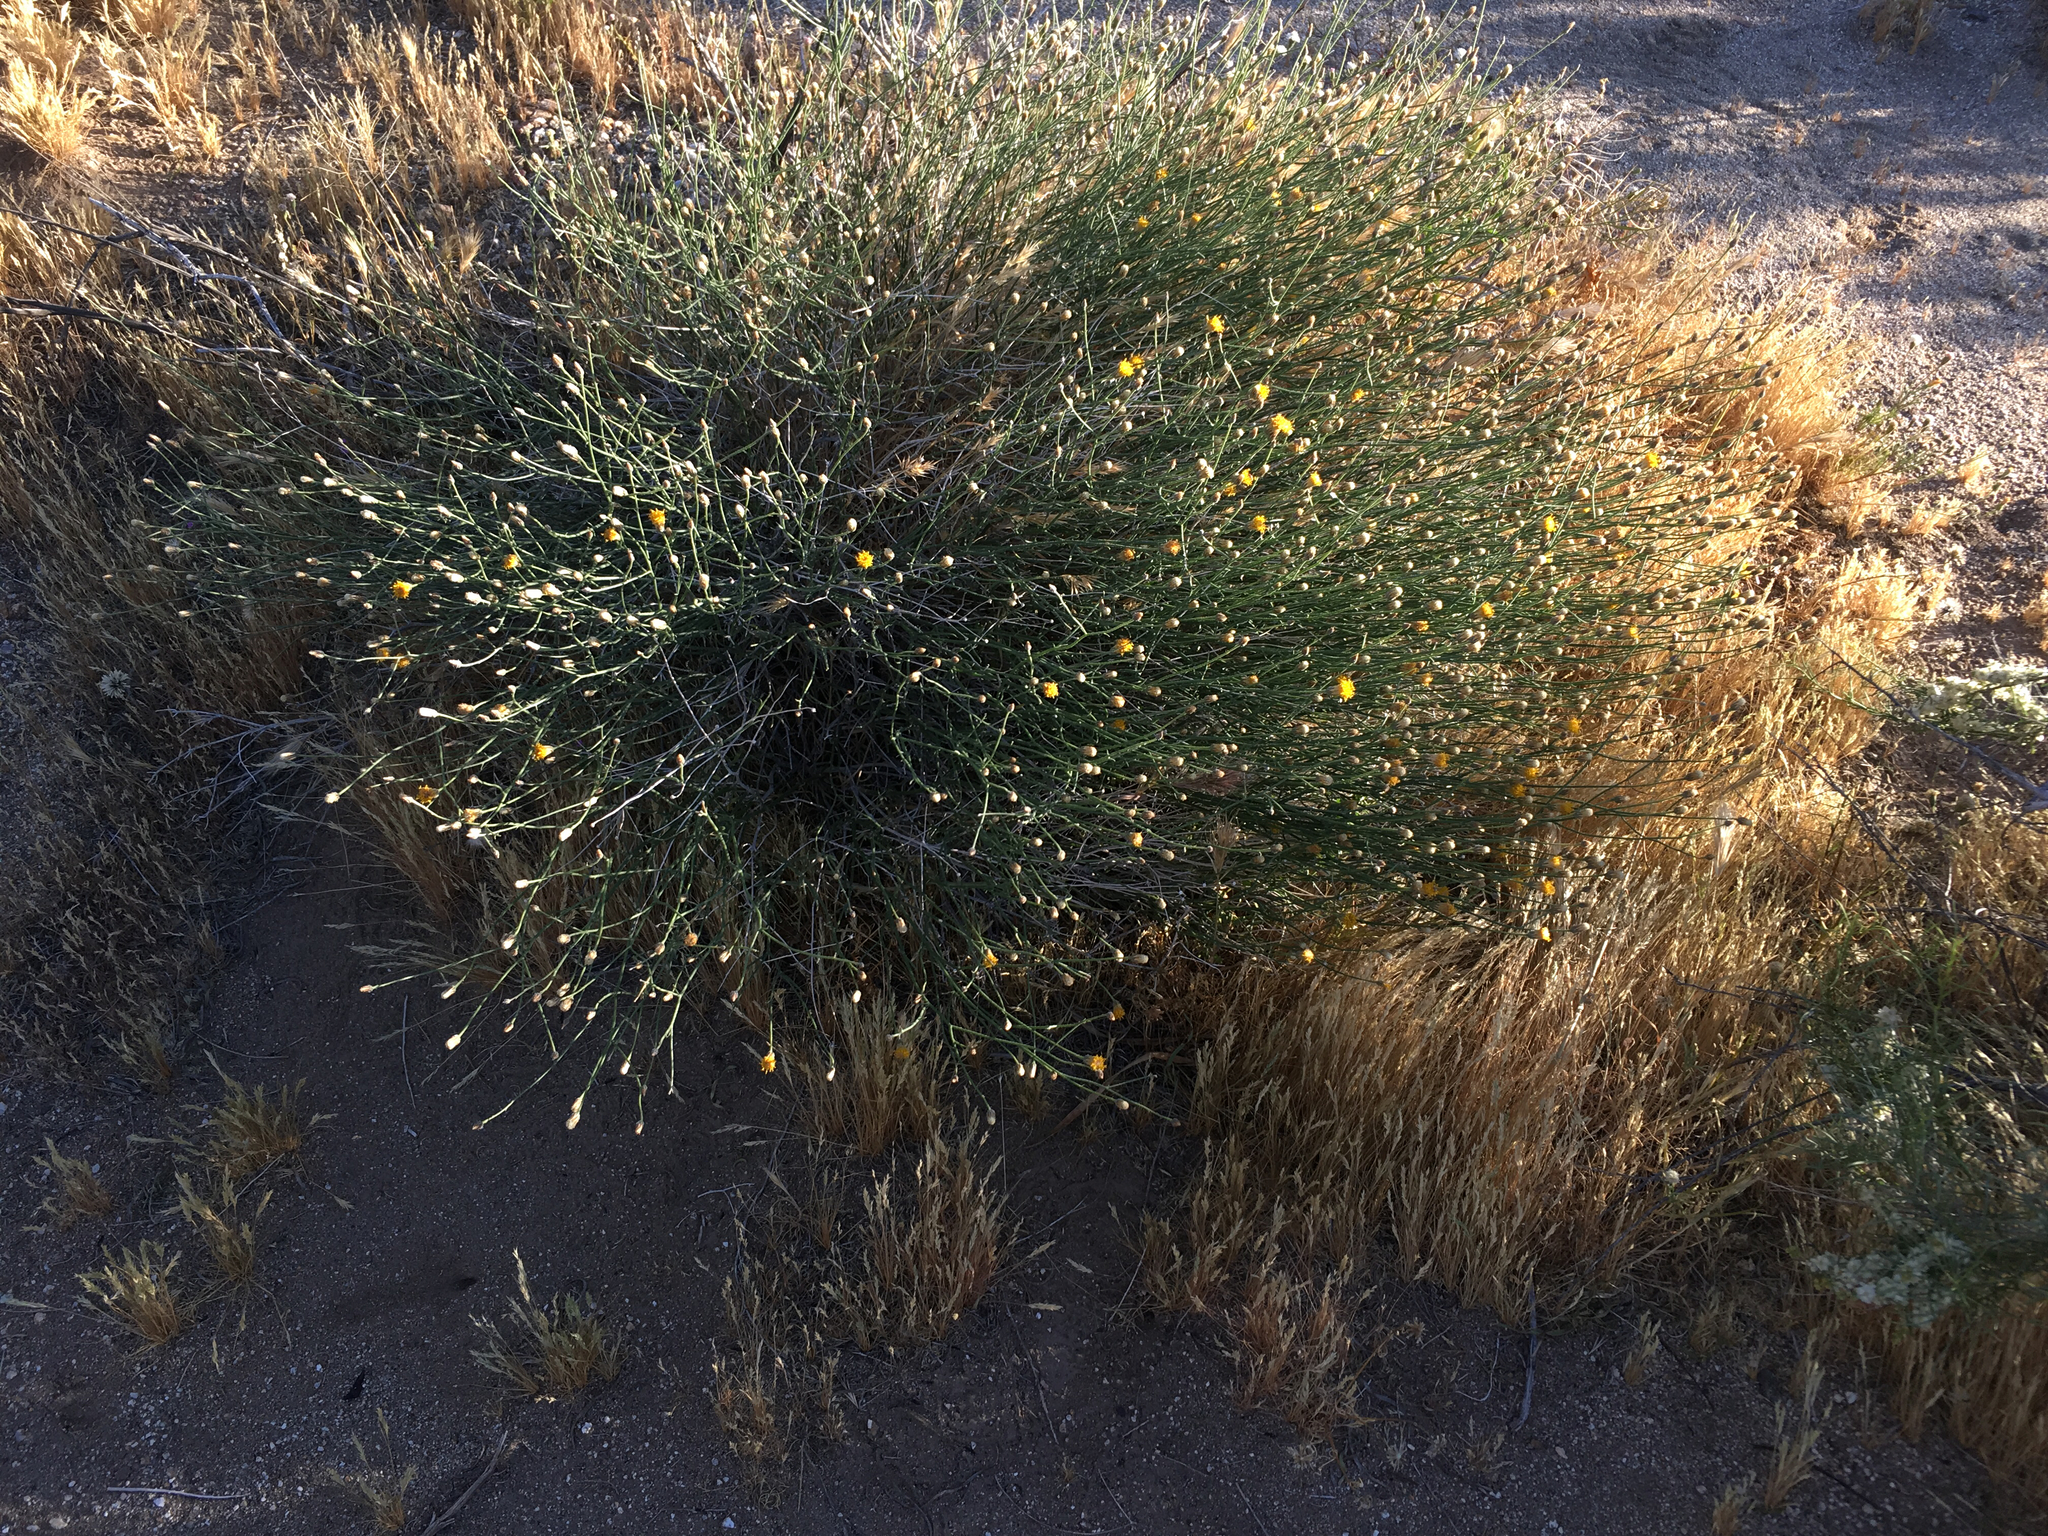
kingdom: Plantae
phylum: Tracheophyta
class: Magnoliopsida
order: Asterales
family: Asteraceae
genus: Bebbia
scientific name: Bebbia juncea
